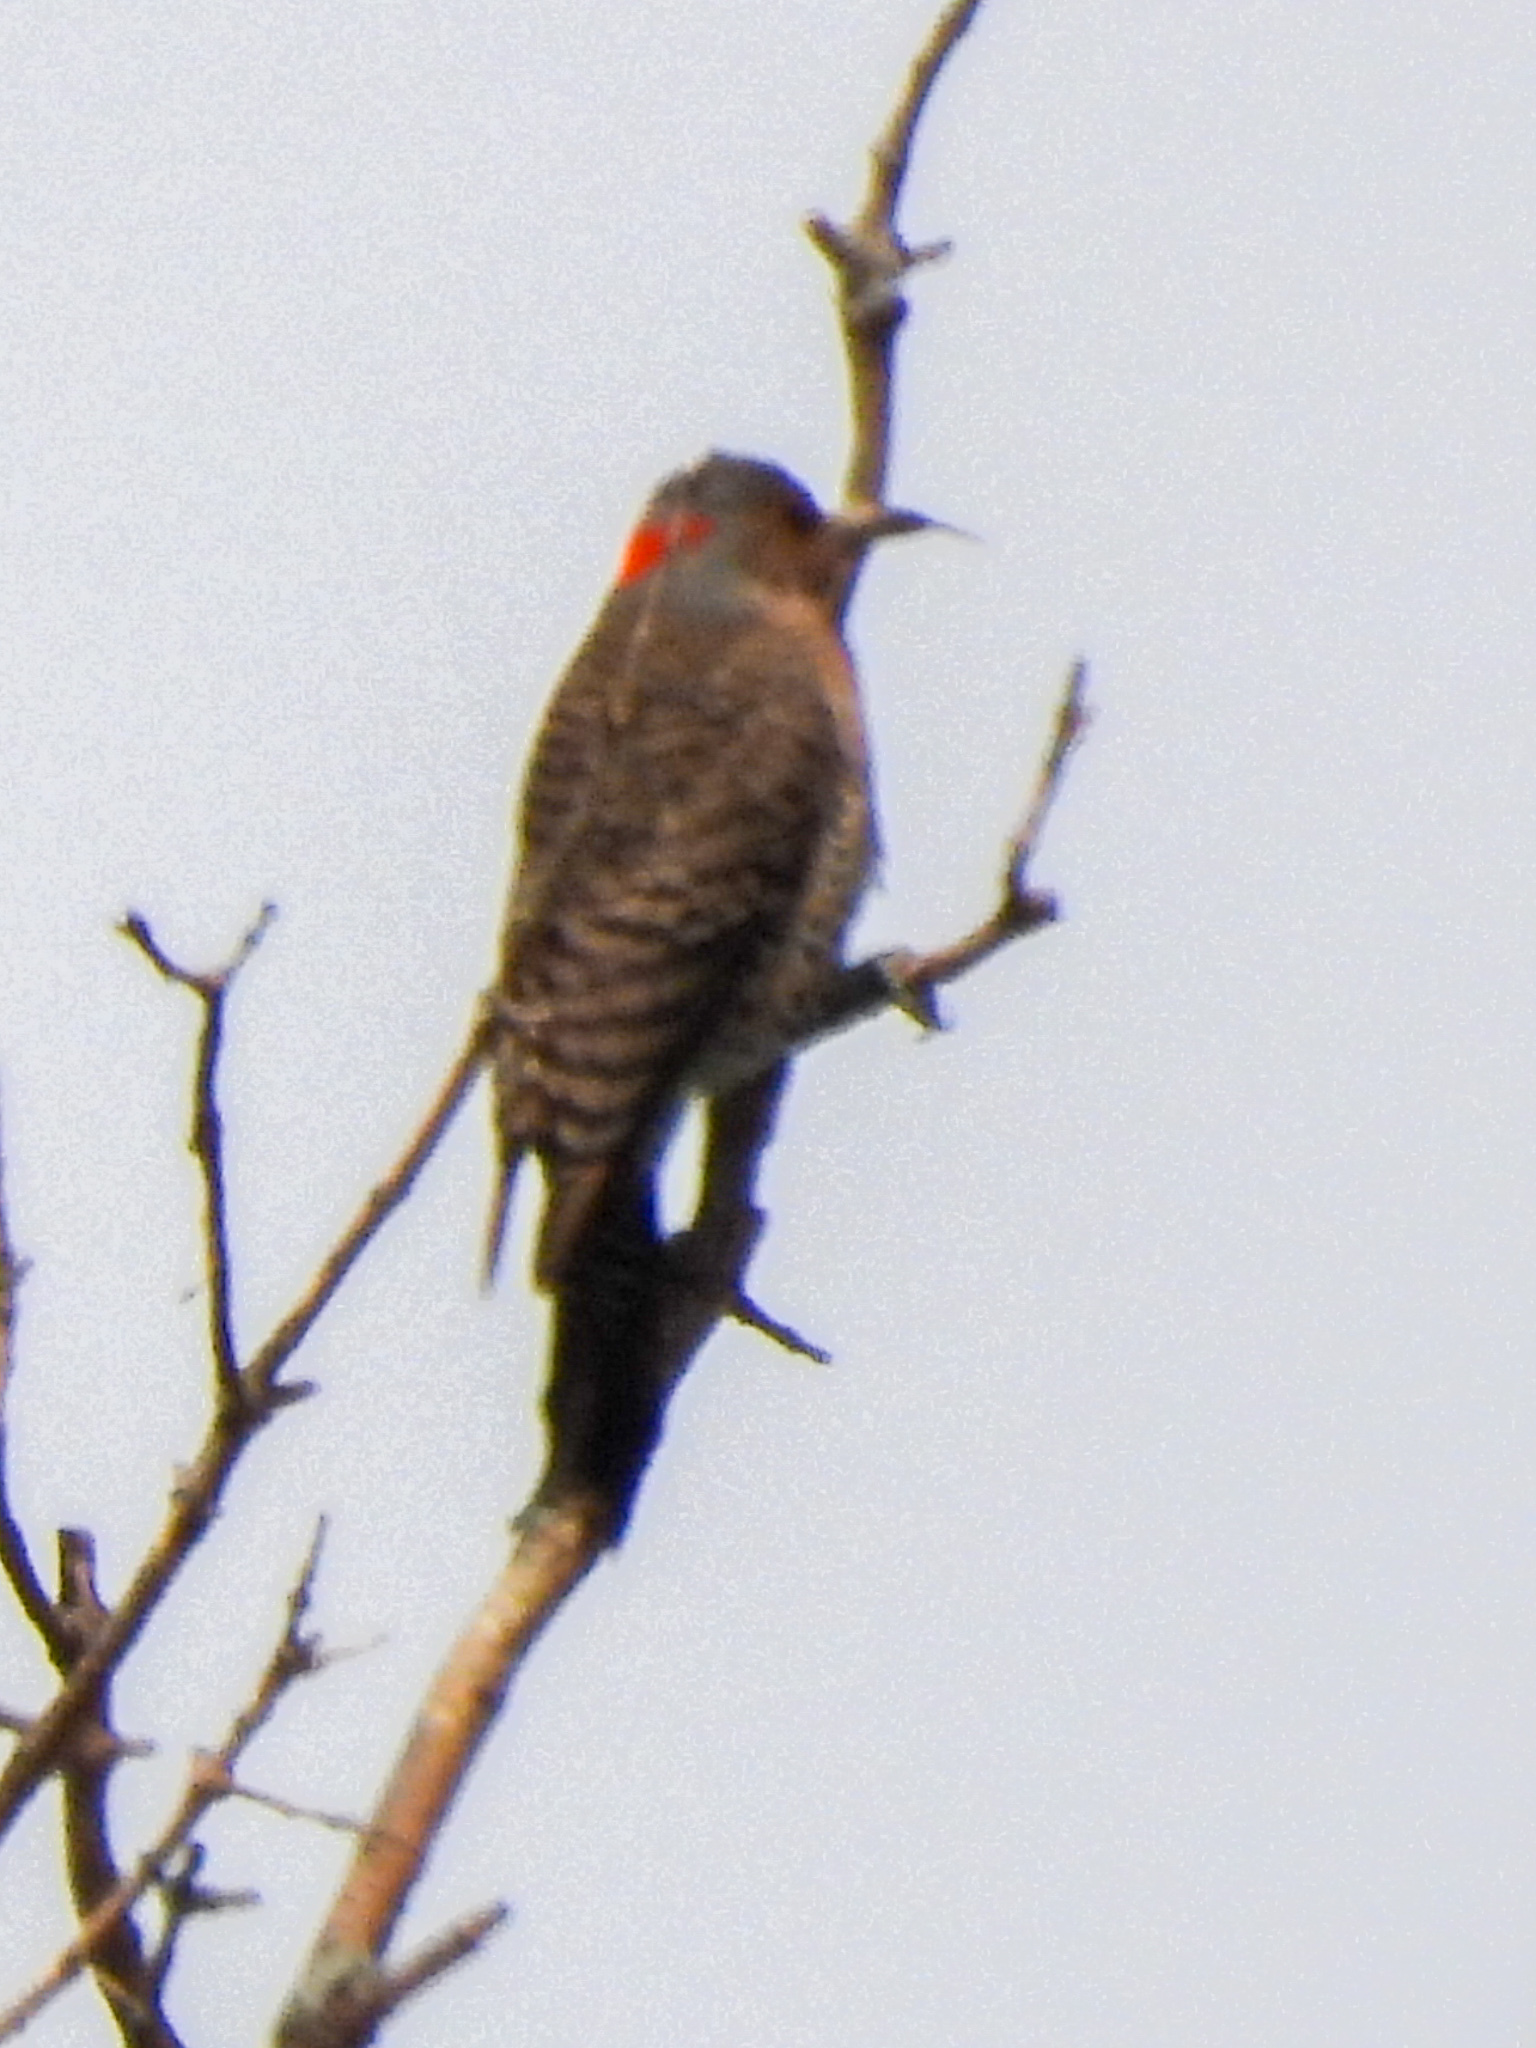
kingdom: Animalia
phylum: Chordata
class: Aves
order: Piciformes
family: Picidae
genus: Colaptes
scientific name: Colaptes auratus
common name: Northern flicker
